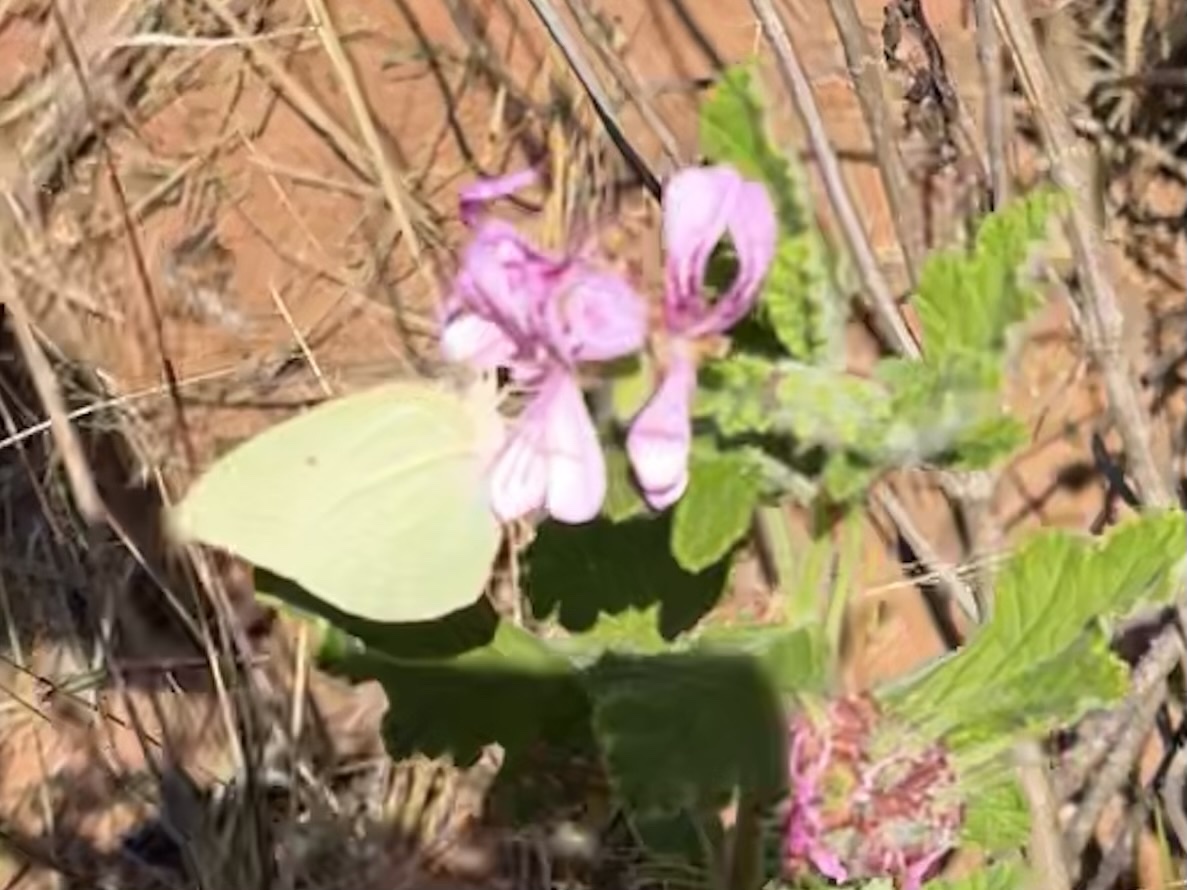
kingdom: Animalia
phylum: Arthropoda
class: Insecta
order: Lepidoptera
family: Pieridae
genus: Catopsilia
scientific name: Catopsilia florella
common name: African migrant
